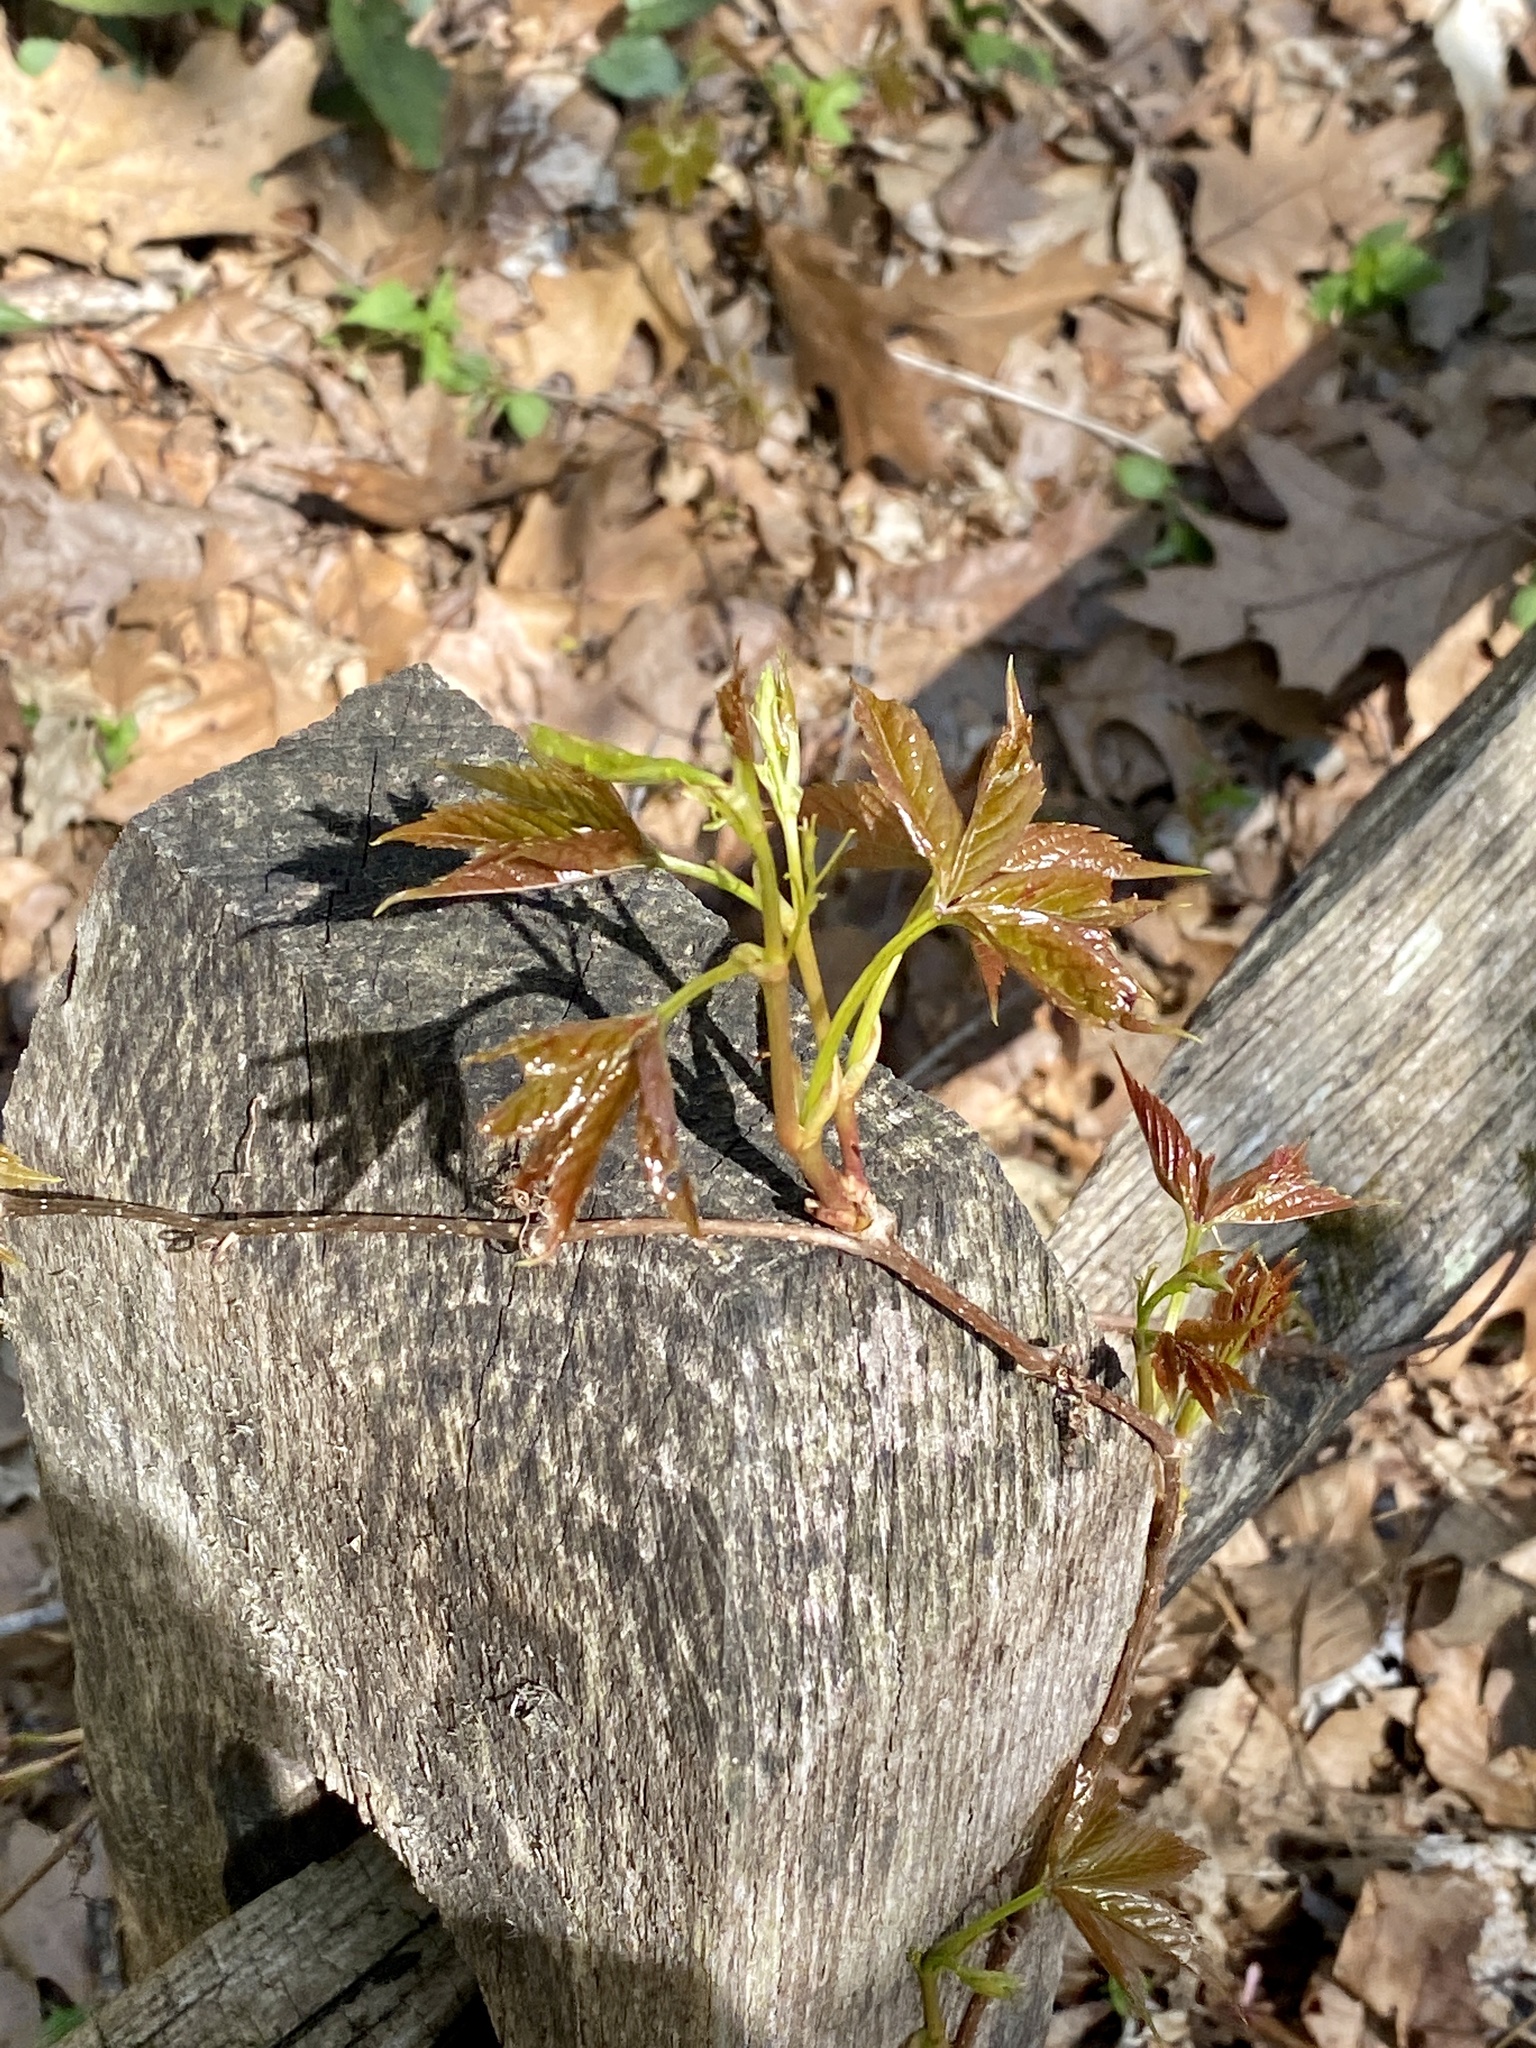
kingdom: Plantae
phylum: Tracheophyta
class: Magnoliopsida
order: Vitales
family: Vitaceae
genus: Parthenocissus
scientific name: Parthenocissus quinquefolia
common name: Virginia-creeper
